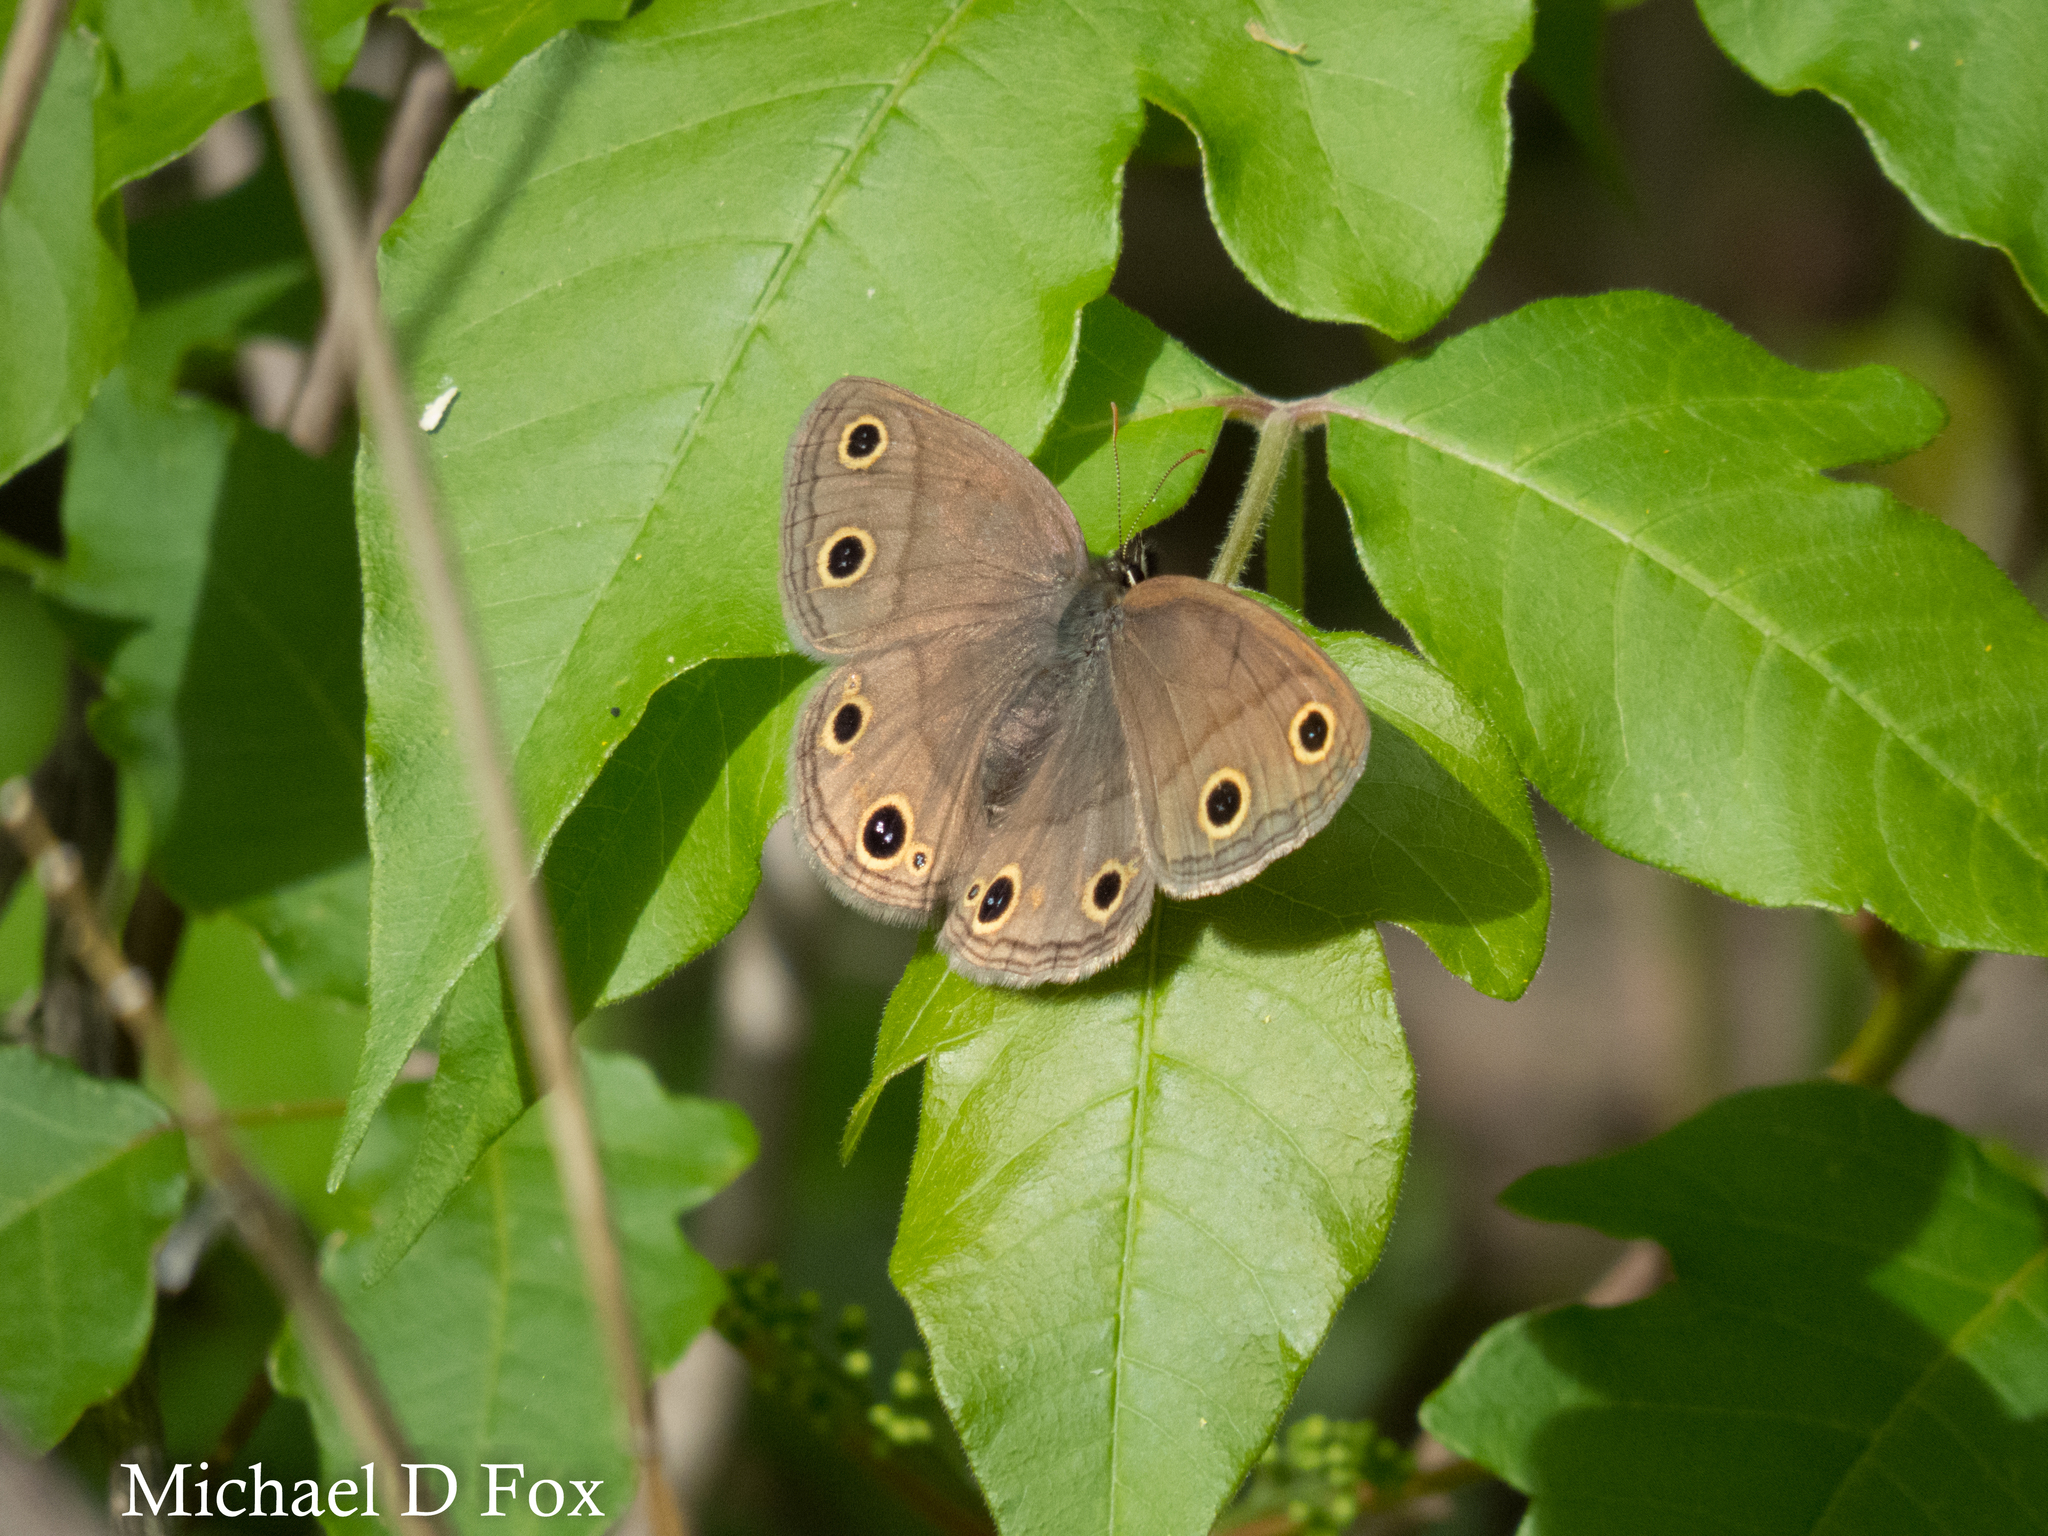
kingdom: Animalia
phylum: Arthropoda
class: Insecta
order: Lepidoptera
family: Nymphalidae
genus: Euptychia
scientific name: Euptychia cymela
